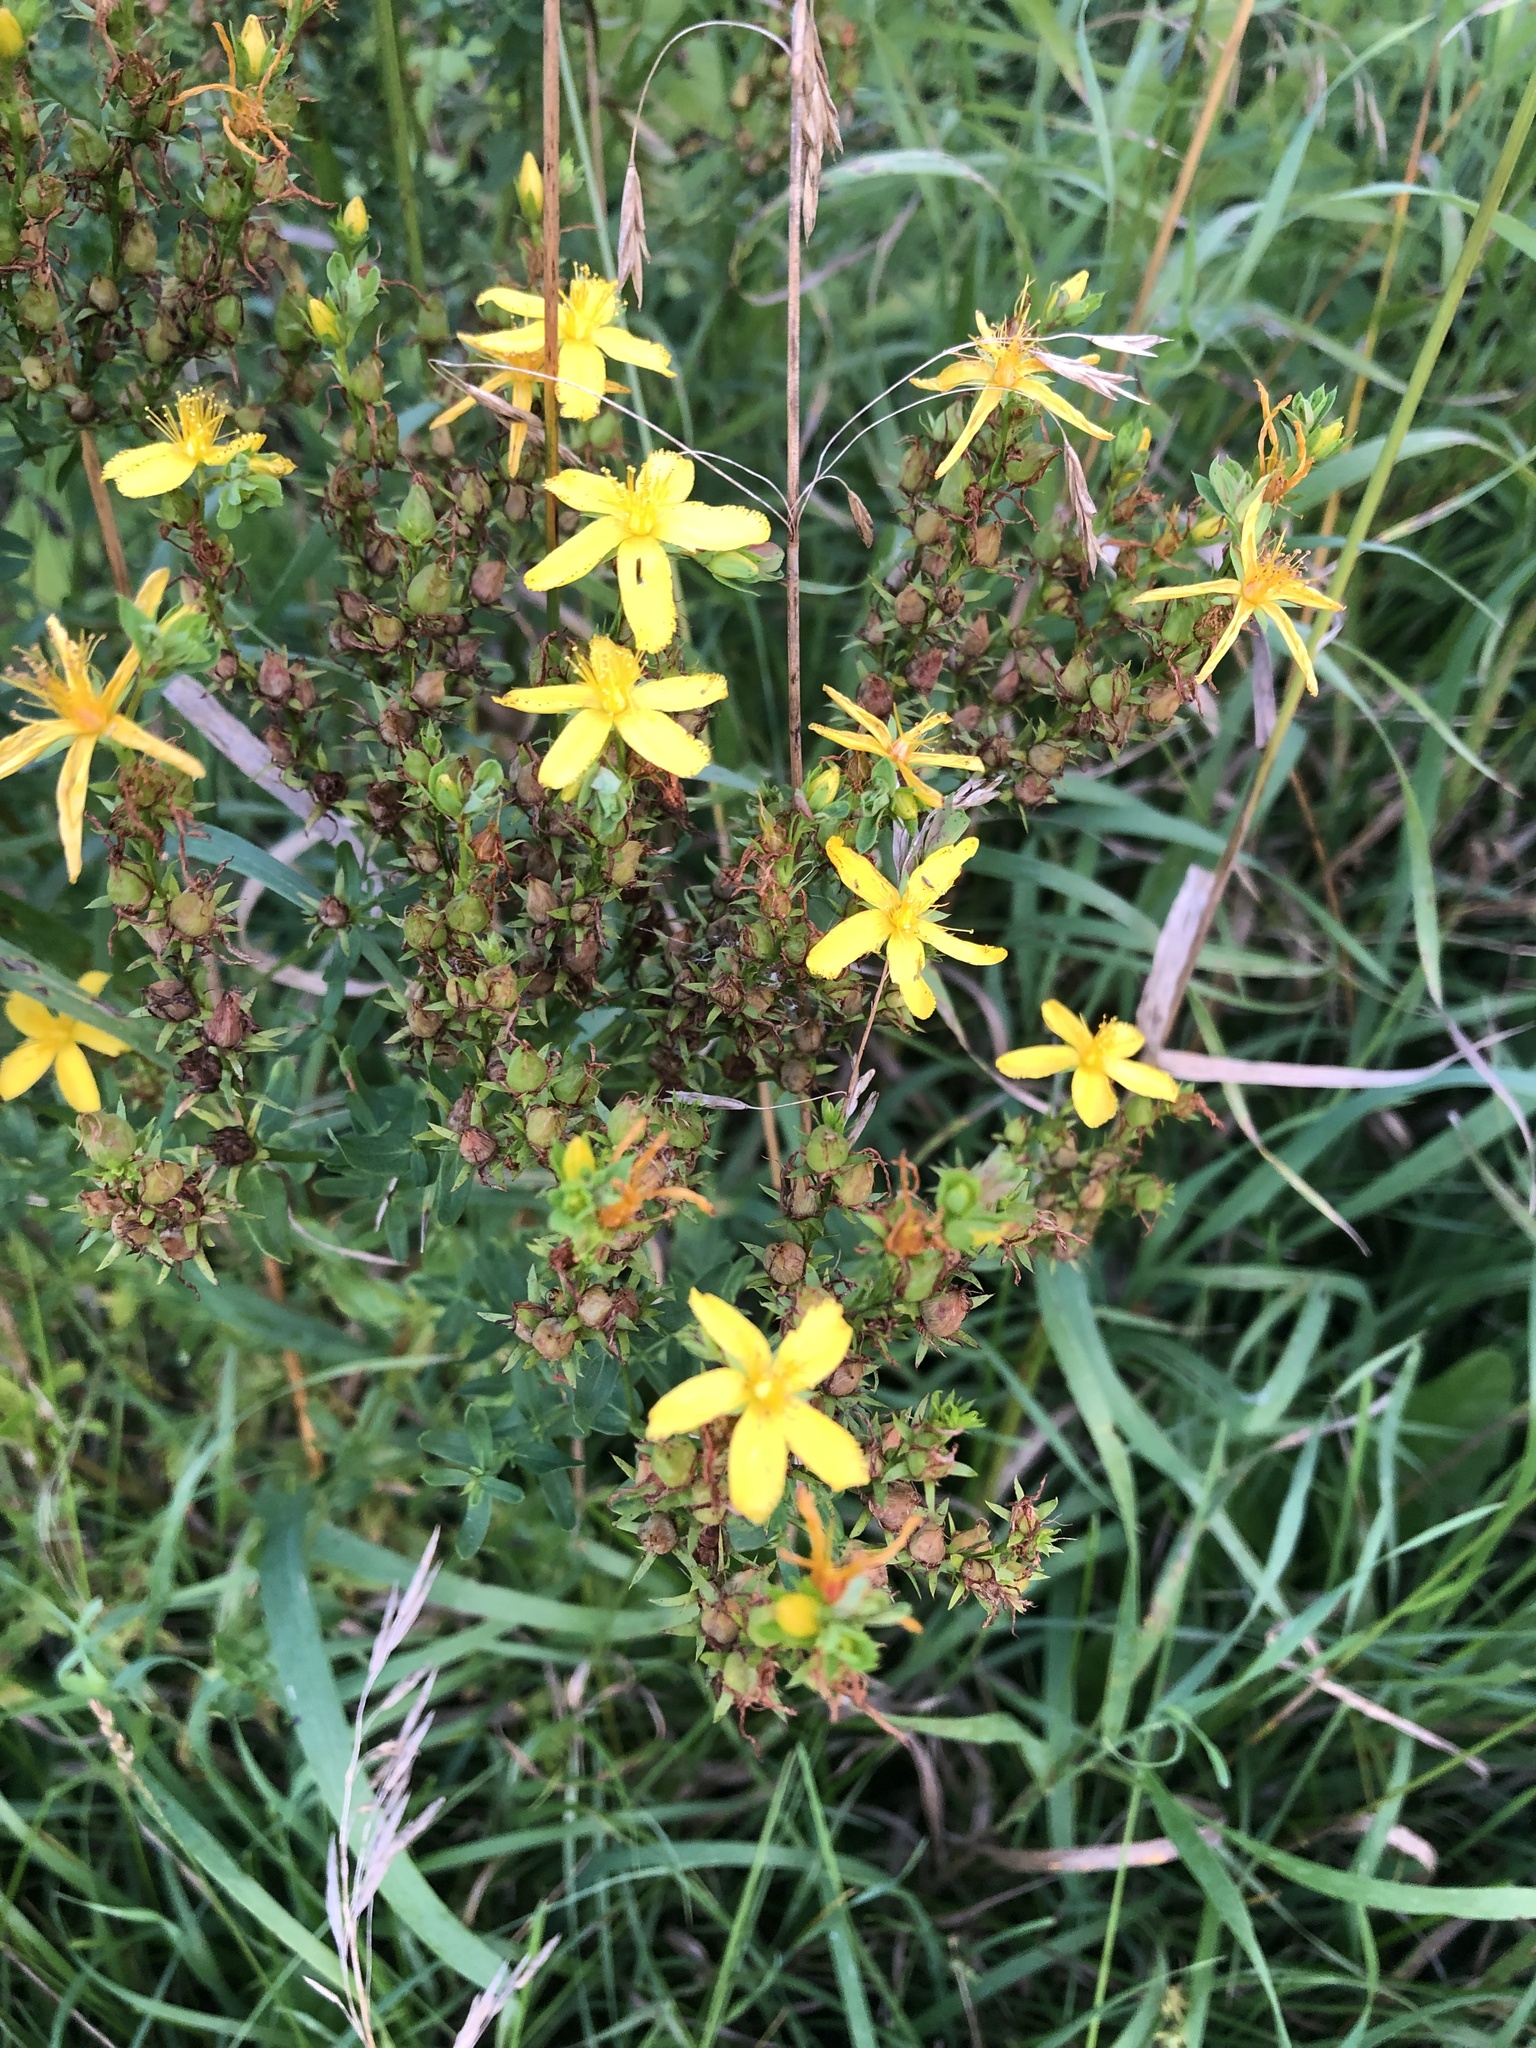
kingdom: Plantae
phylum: Tracheophyta
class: Magnoliopsida
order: Malpighiales
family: Hypericaceae
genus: Hypericum
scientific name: Hypericum perforatum
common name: Common st. johnswort
